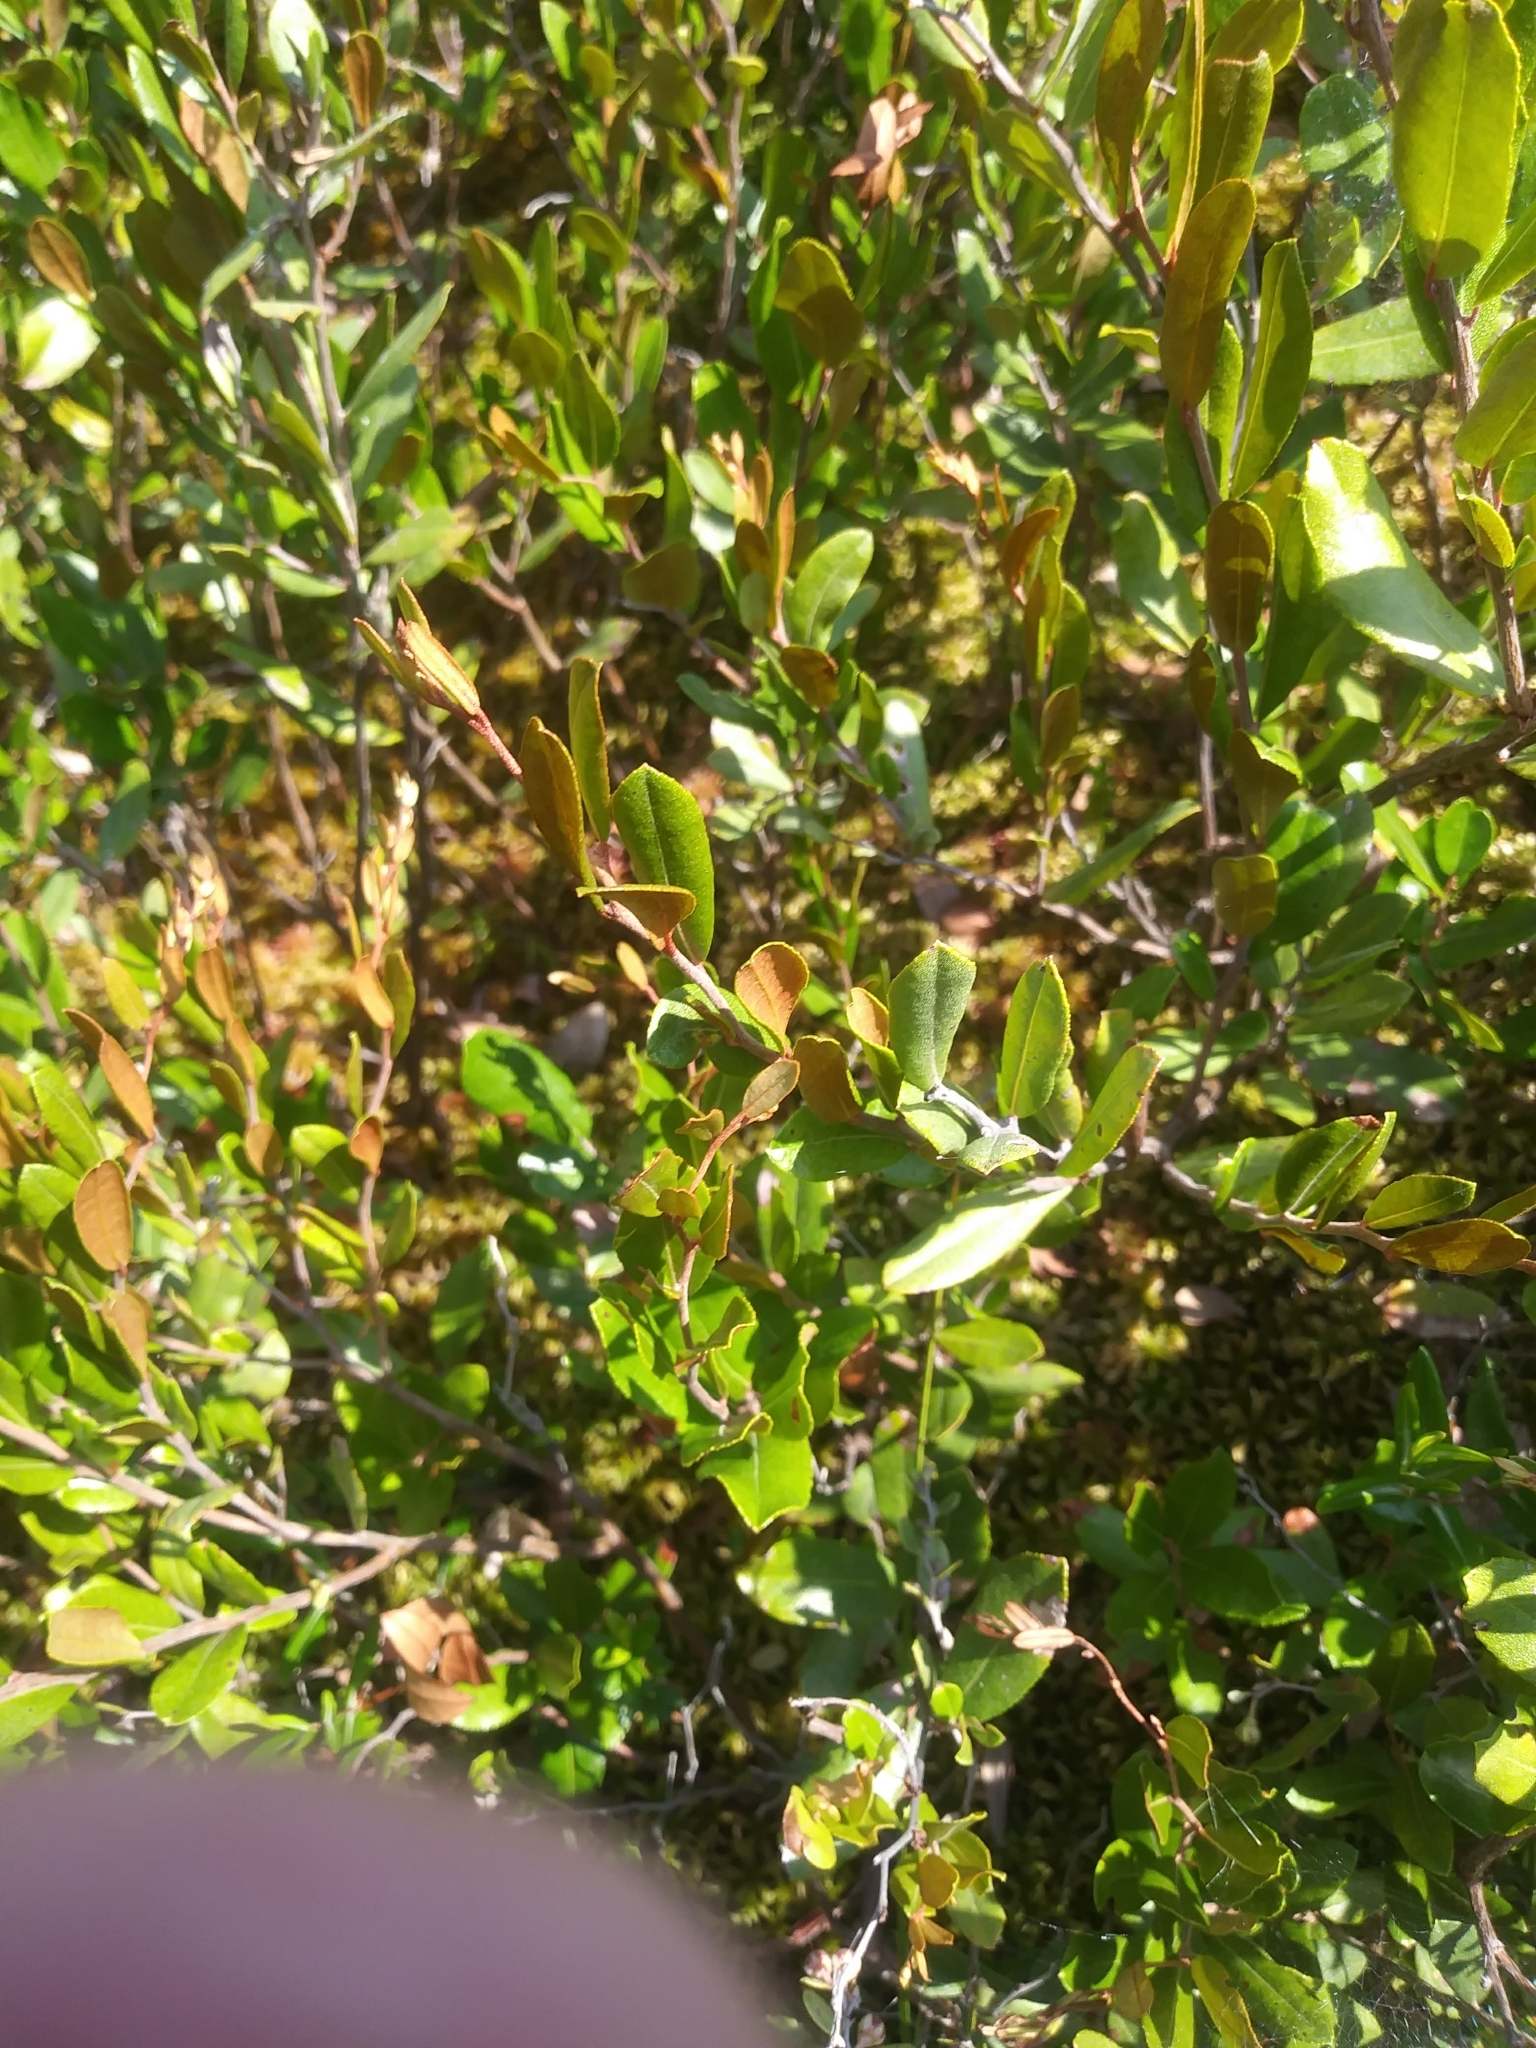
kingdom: Plantae
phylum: Tracheophyta
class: Magnoliopsida
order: Ericales
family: Ericaceae
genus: Chamaedaphne
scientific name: Chamaedaphne calyculata
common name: Leatherleaf
